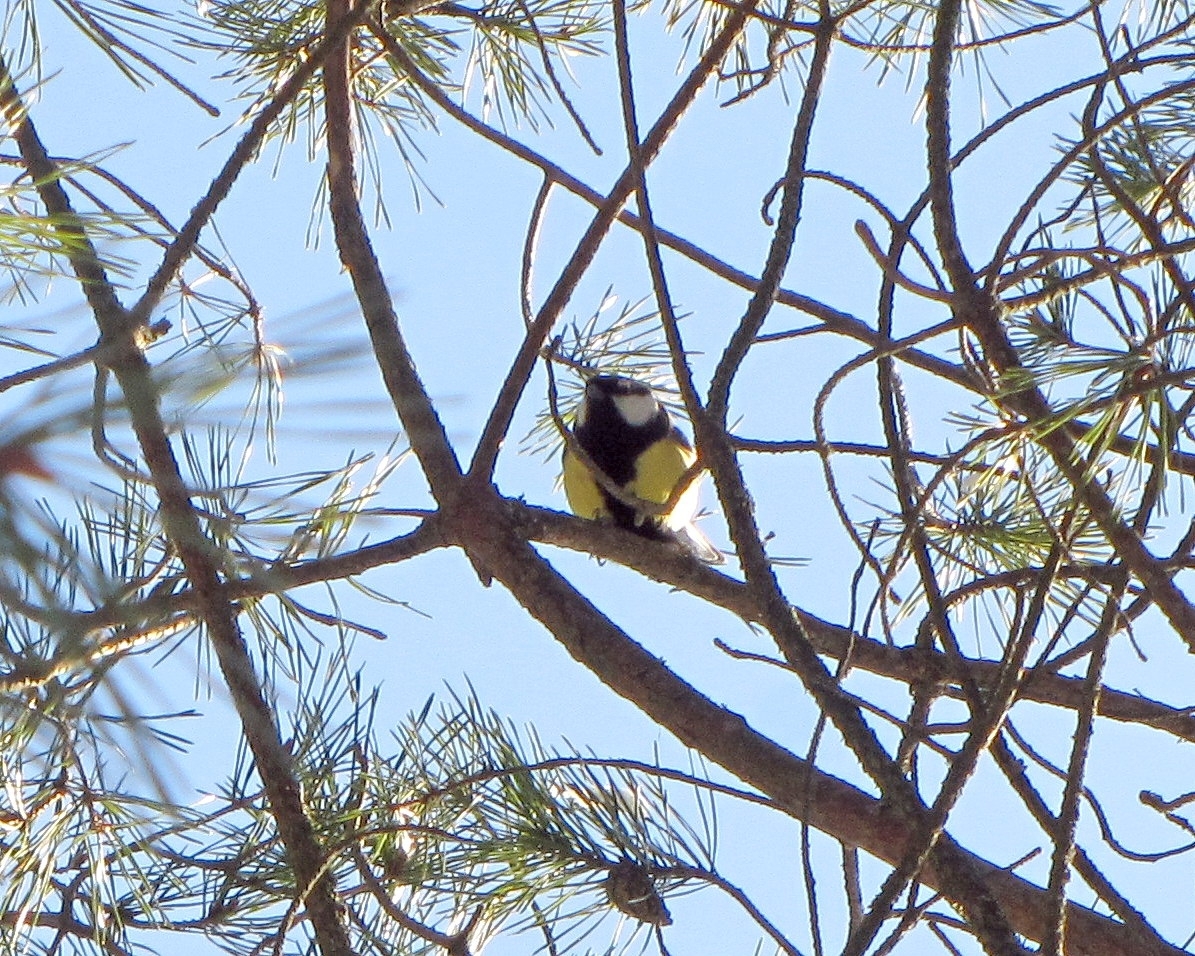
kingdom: Animalia
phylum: Chordata
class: Aves
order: Passeriformes
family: Paridae
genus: Parus
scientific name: Parus major
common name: Great tit
